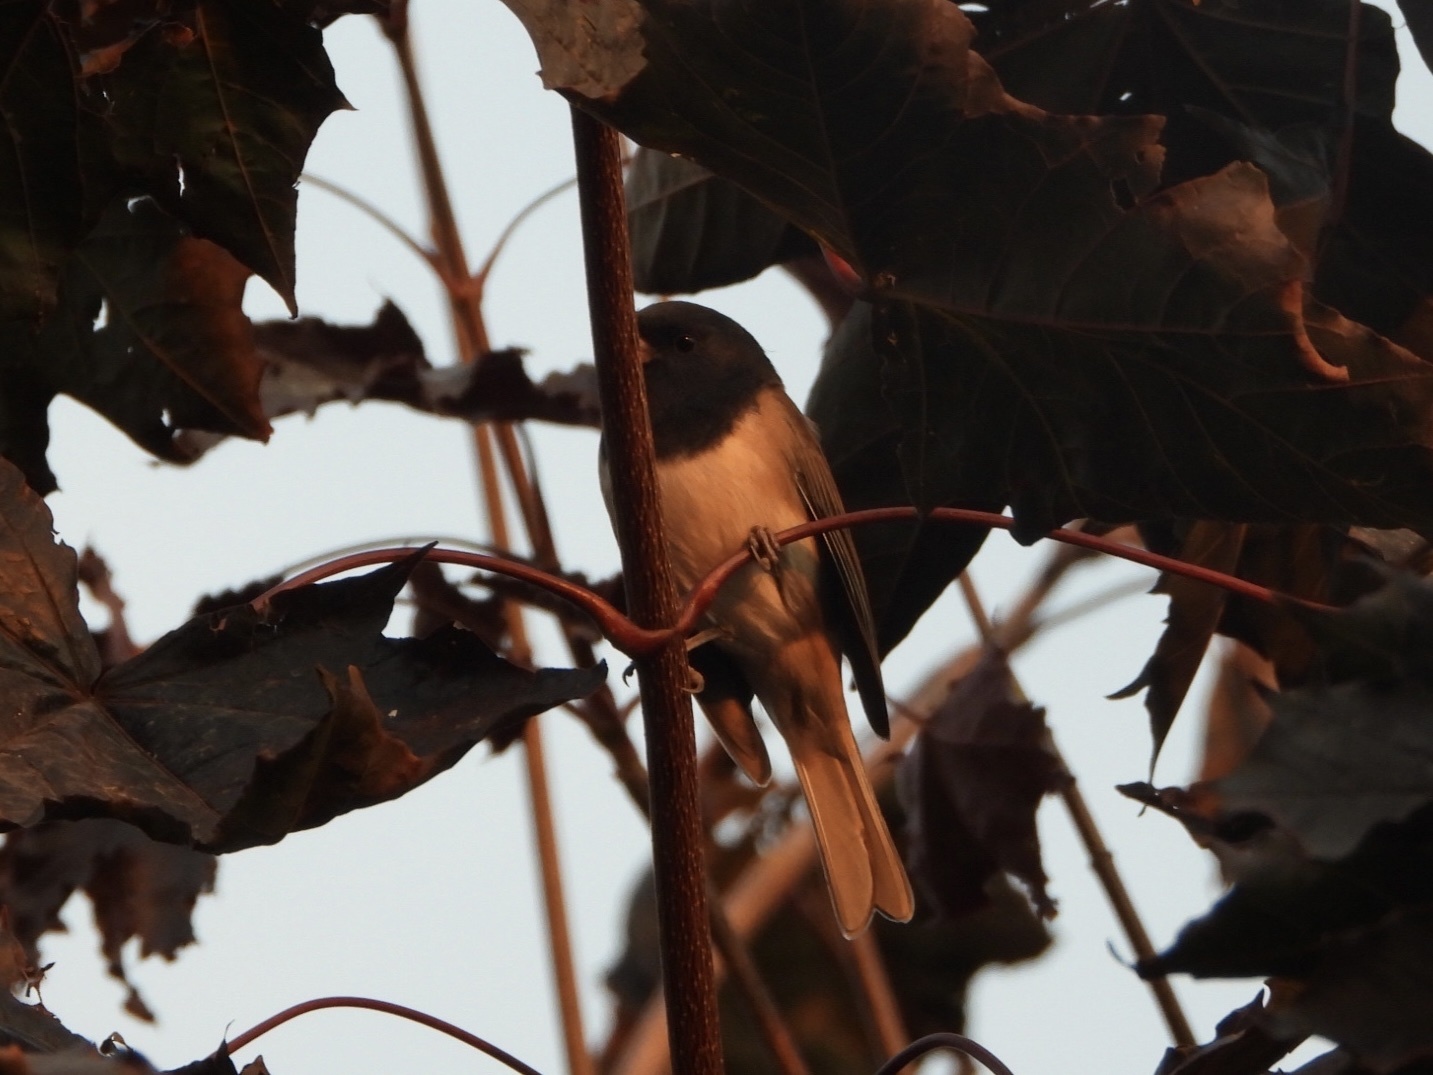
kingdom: Animalia
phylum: Chordata
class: Aves
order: Passeriformes
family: Passerellidae
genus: Junco
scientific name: Junco hyemalis
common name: Dark-eyed junco
